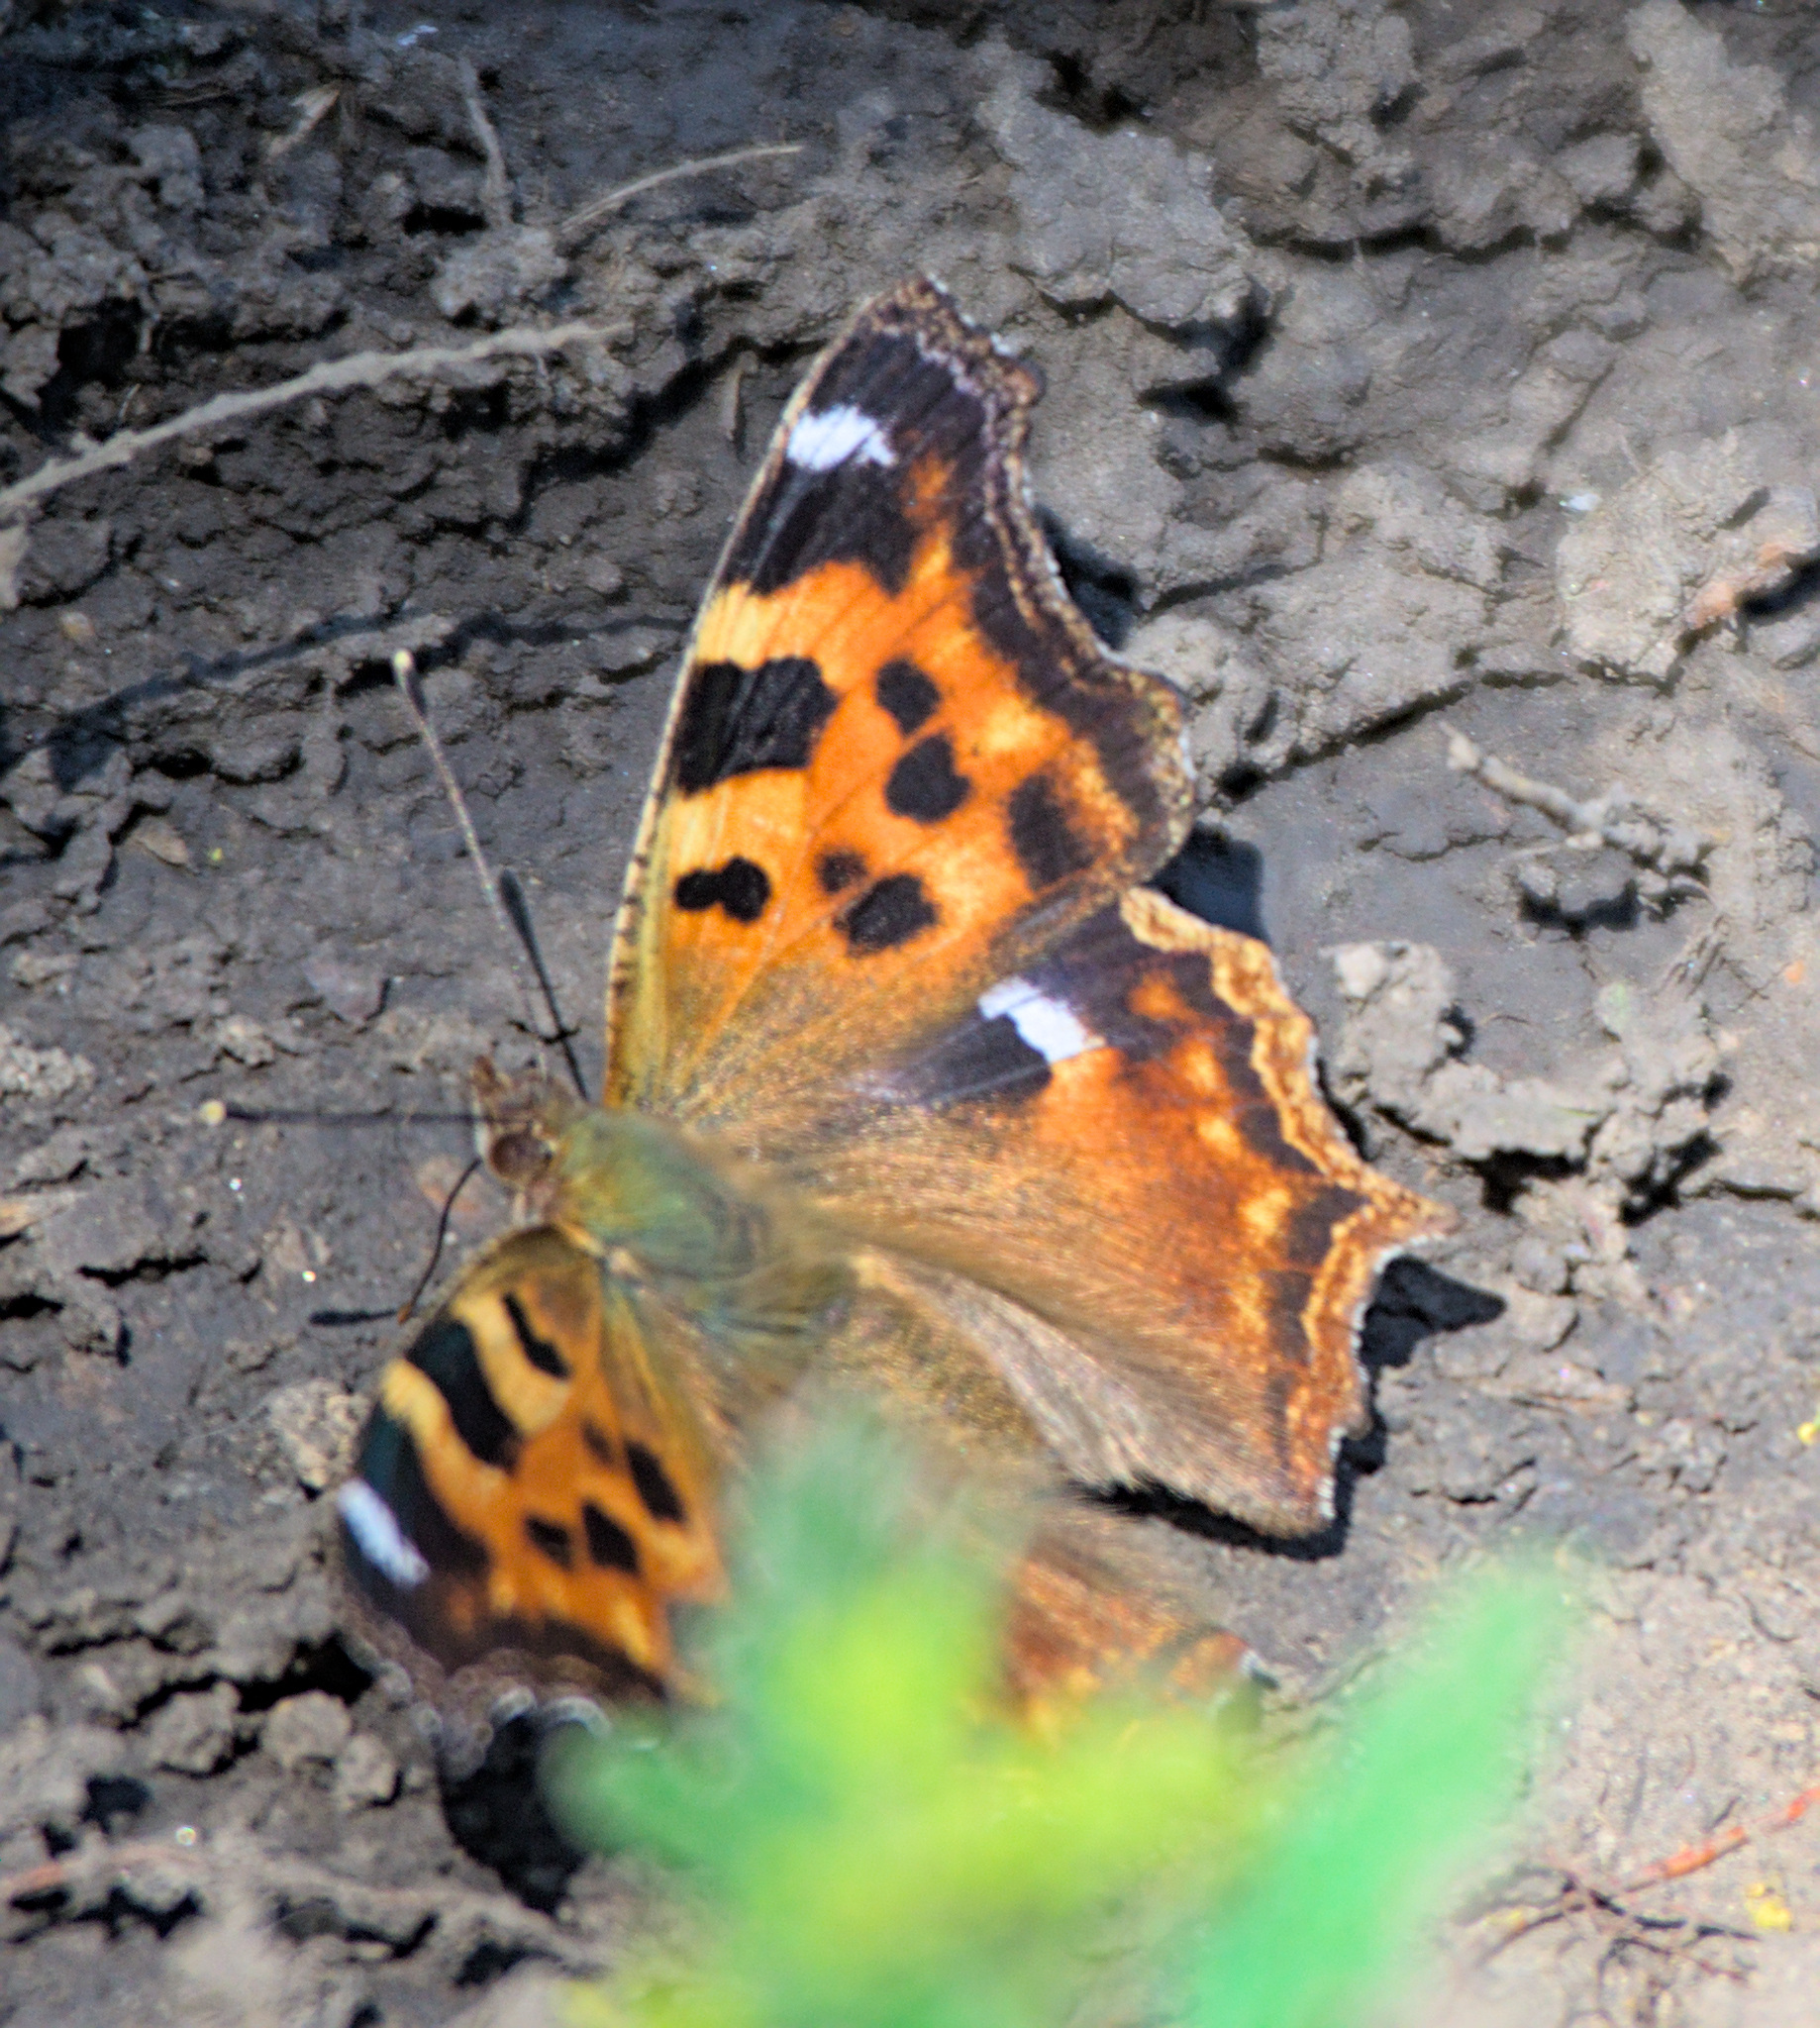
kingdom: Animalia
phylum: Arthropoda
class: Insecta
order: Lepidoptera
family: Nymphalidae
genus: Polygonia
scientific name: Polygonia vaualbum
